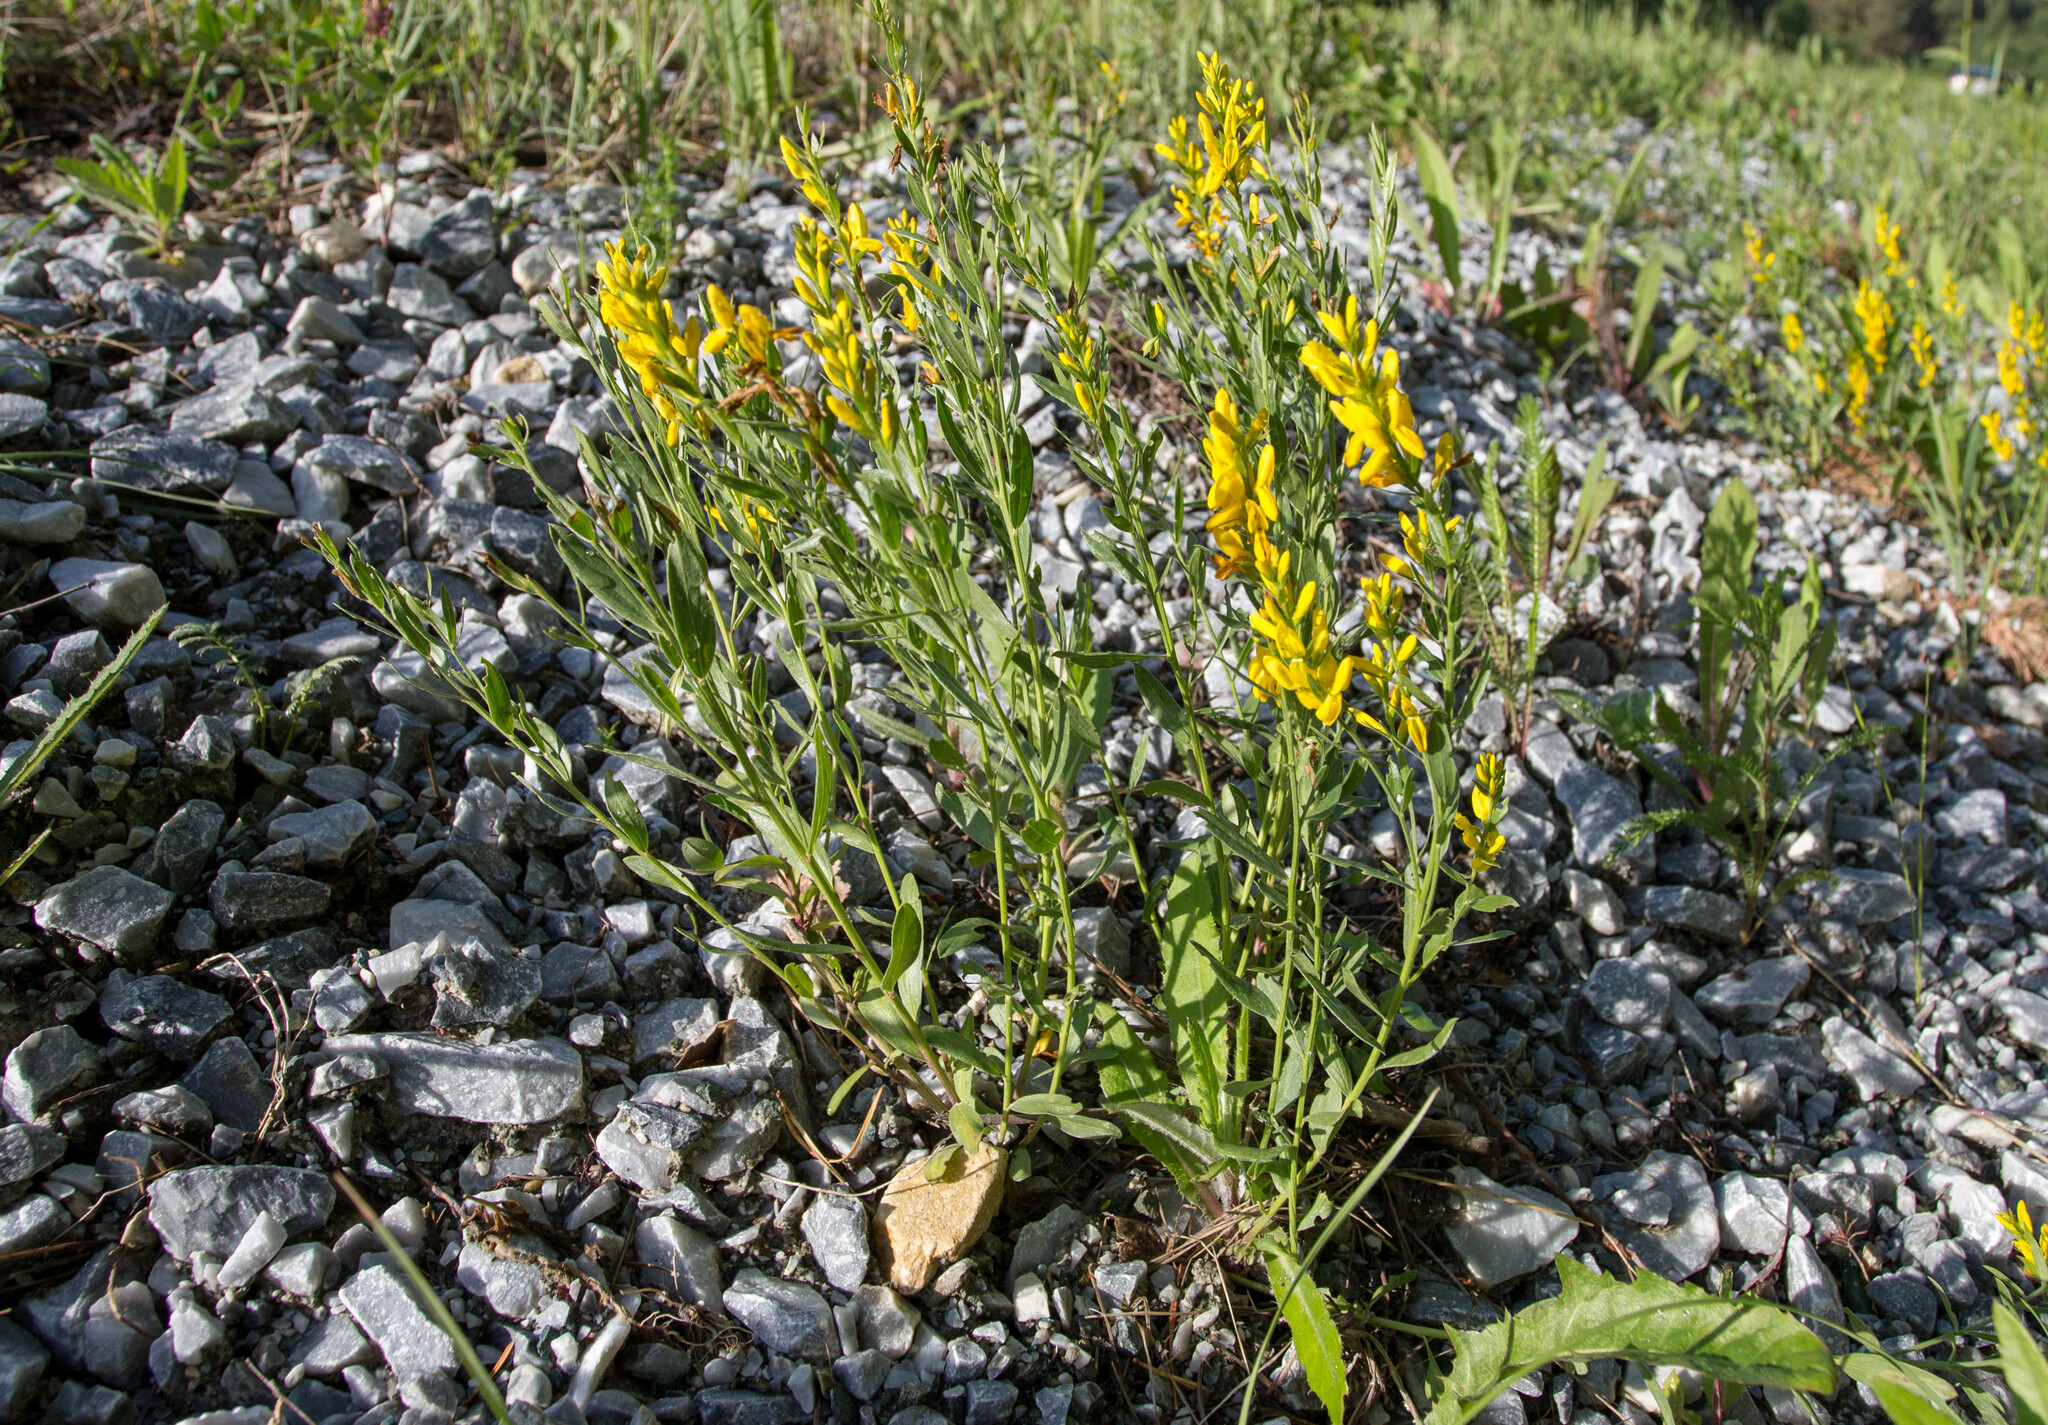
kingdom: Plantae
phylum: Tracheophyta
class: Magnoliopsida
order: Fabales
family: Fabaceae
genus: Genista
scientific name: Genista tinctoria
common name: Dyer's greenweed
